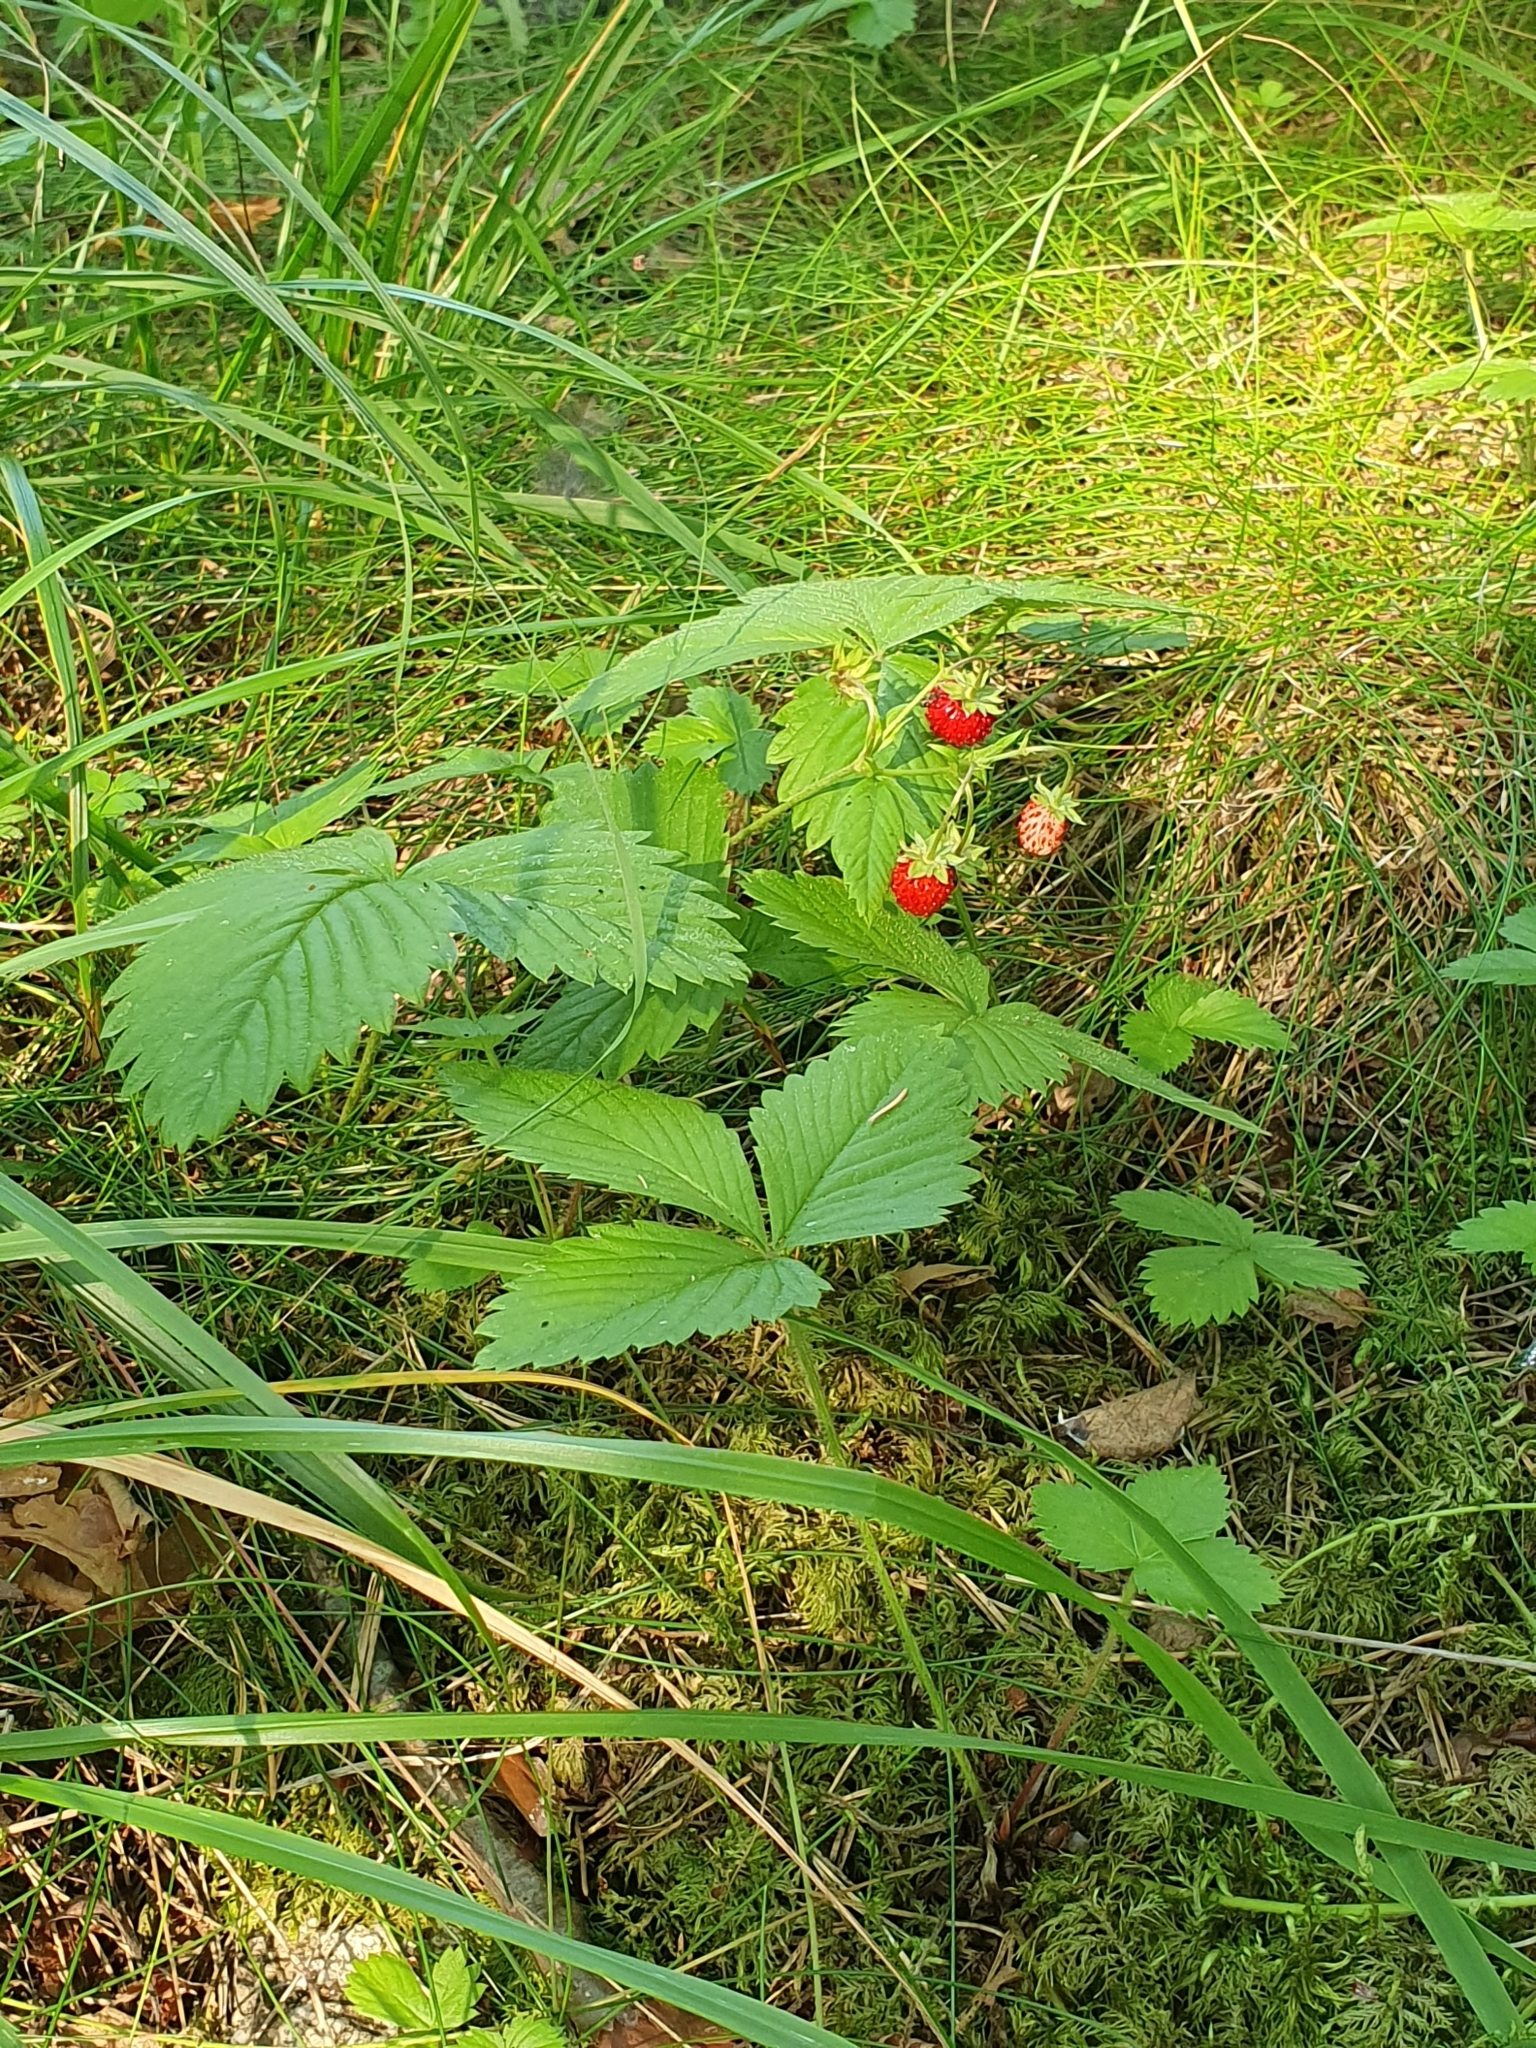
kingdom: Plantae
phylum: Tracheophyta
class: Magnoliopsida
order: Rosales
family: Rosaceae
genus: Fragaria
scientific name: Fragaria vesca
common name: Wild strawberry
